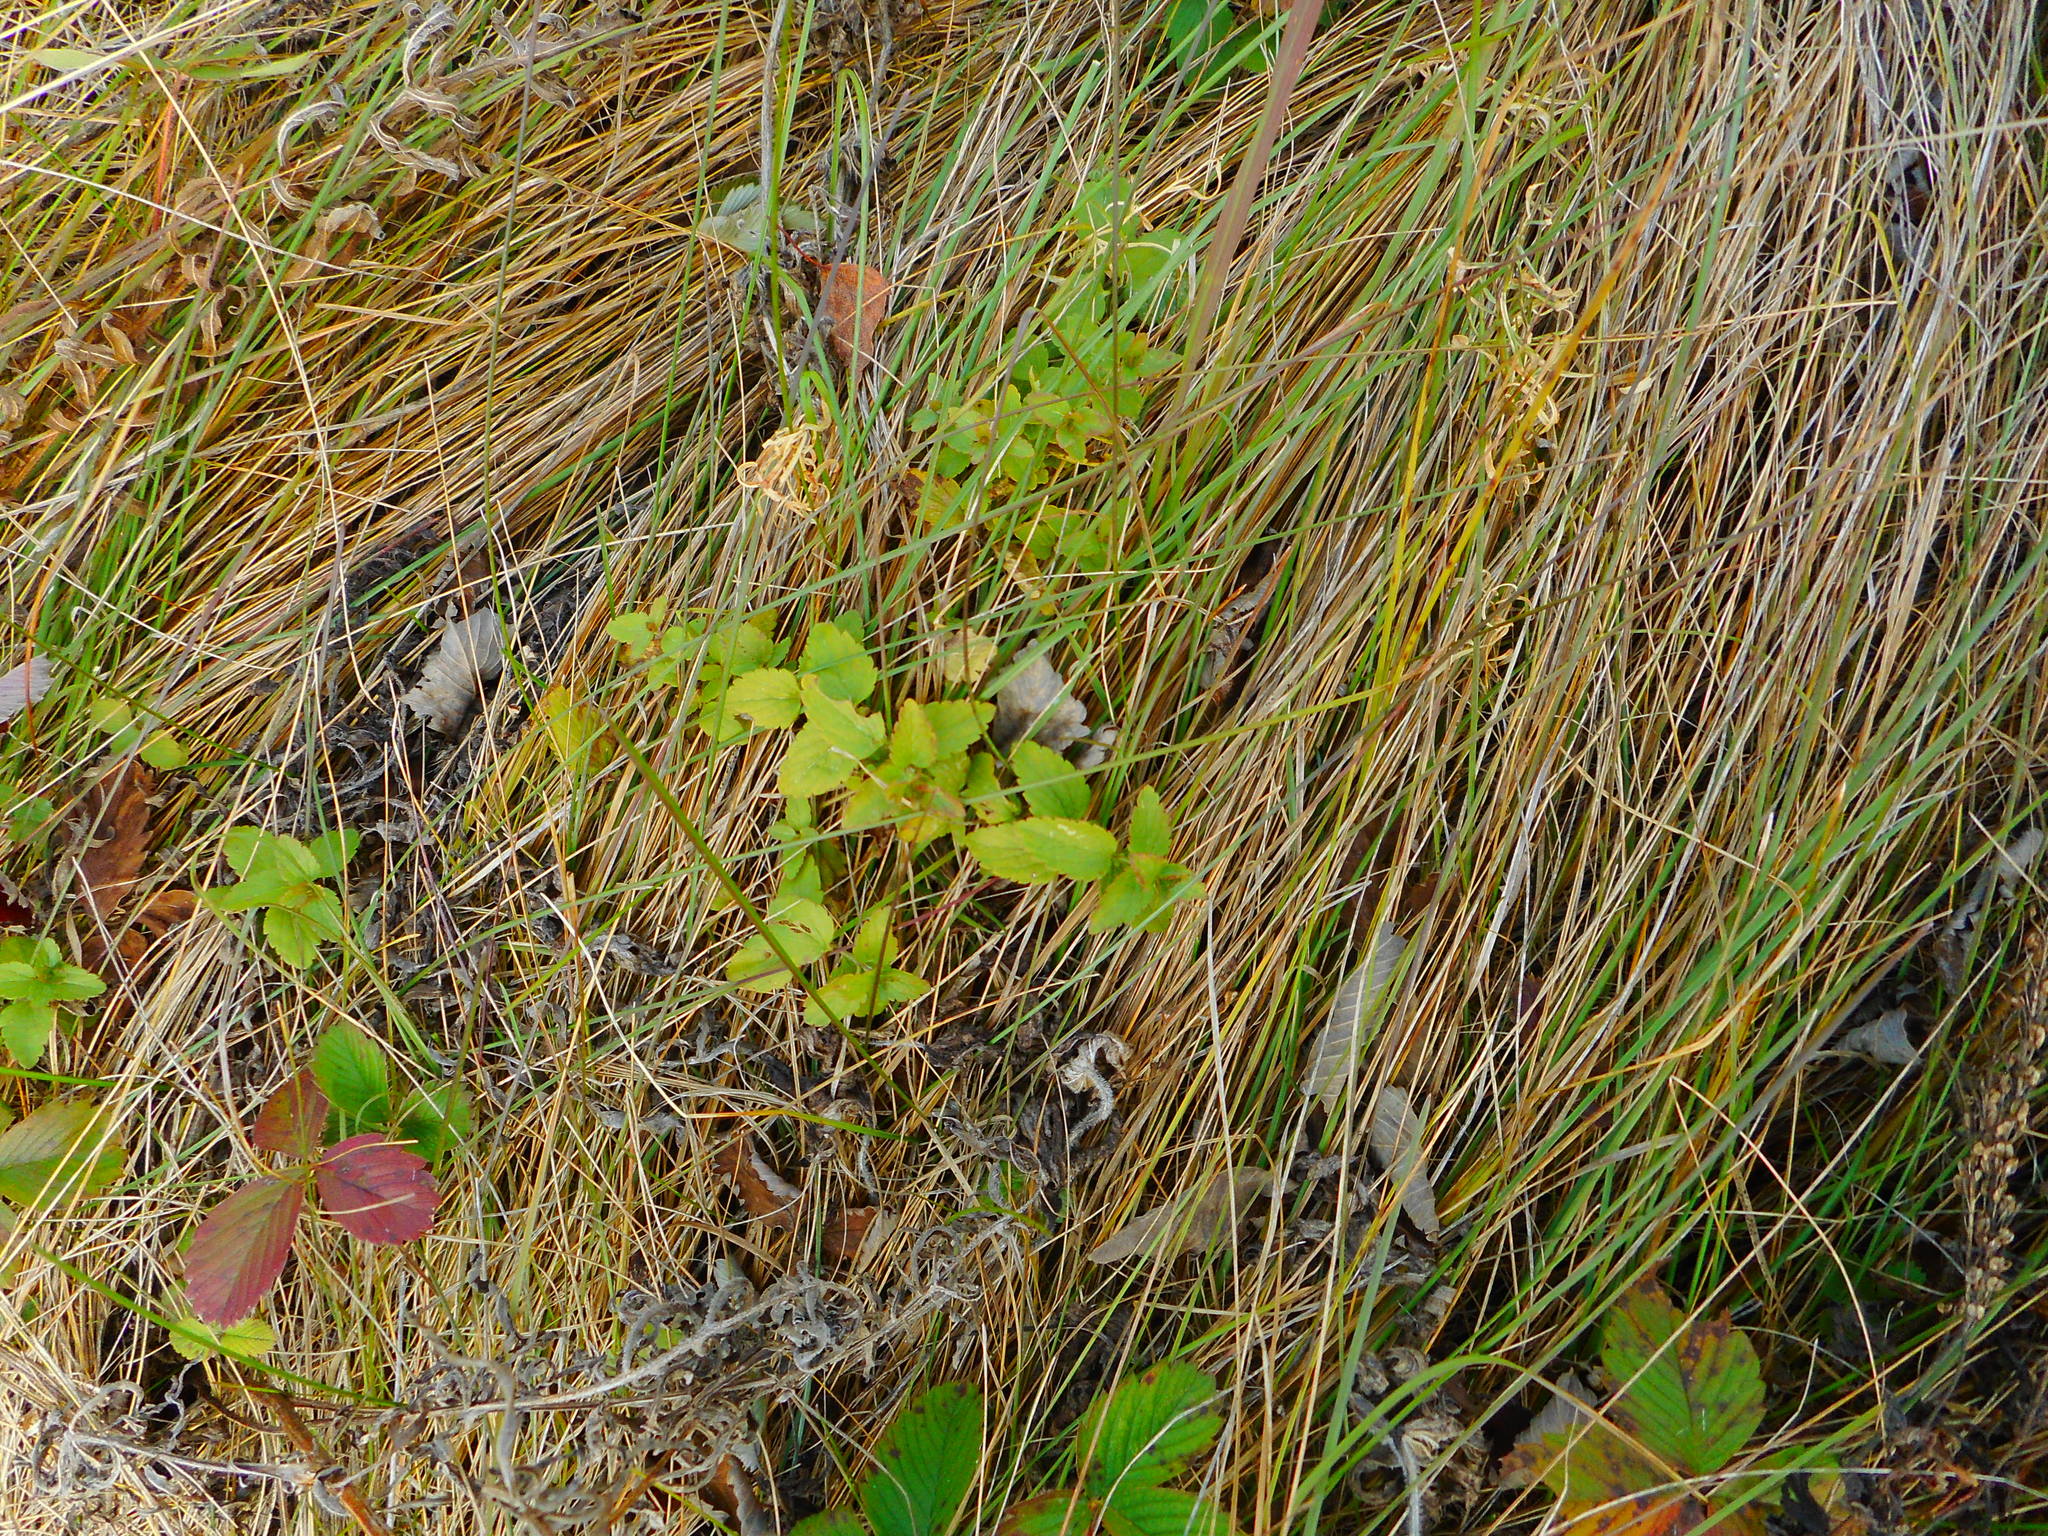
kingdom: Plantae
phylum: Tracheophyta
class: Magnoliopsida
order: Lamiales
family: Plantaginaceae
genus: Veronica
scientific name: Veronica chamaedrys
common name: Germander speedwell
